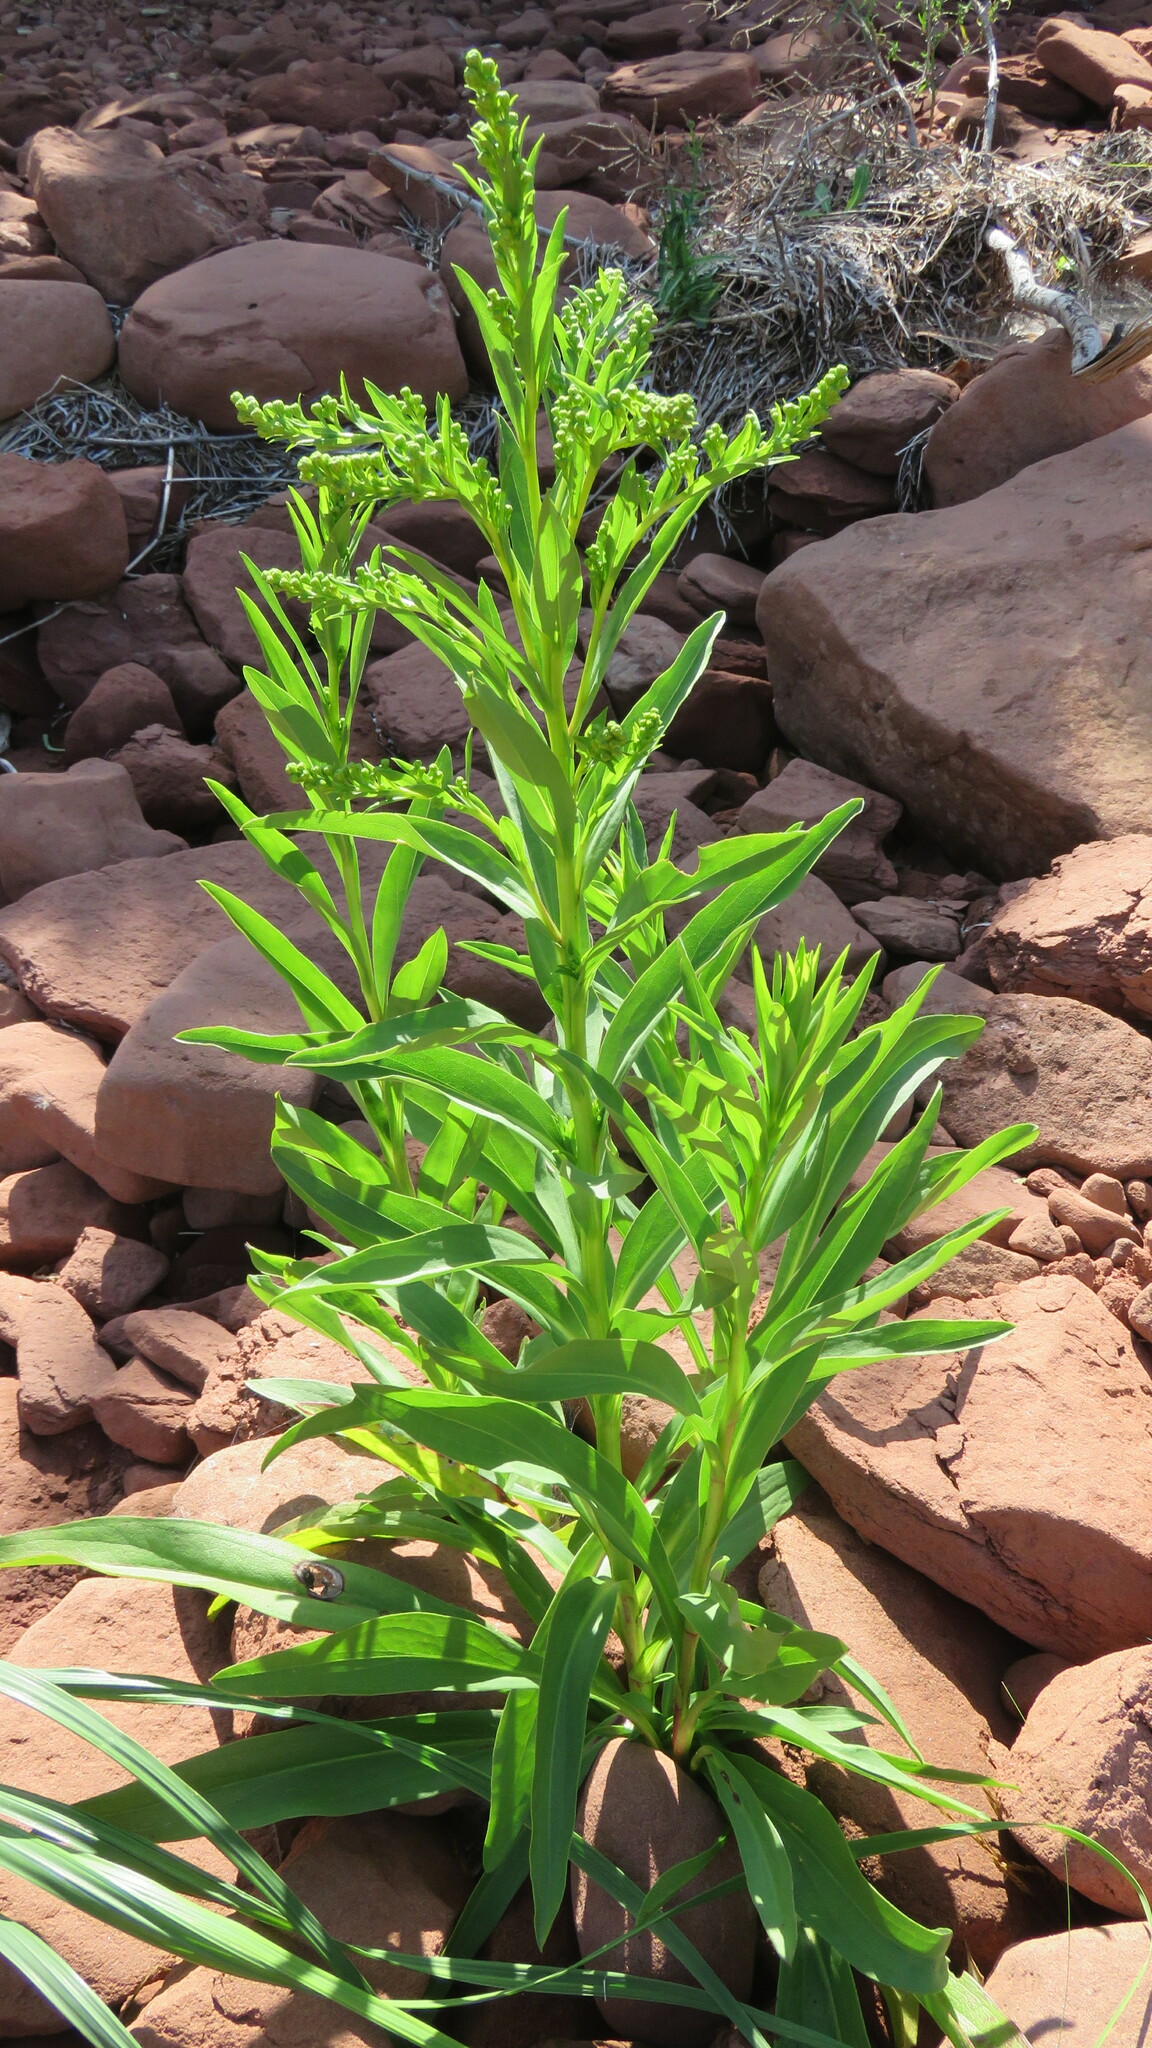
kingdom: Plantae
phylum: Tracheophyta
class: Magnoliopsida
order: Asterales
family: Asteraceae
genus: Solidago
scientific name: Solidago sempervirens
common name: Salt-marsh goldenrod
